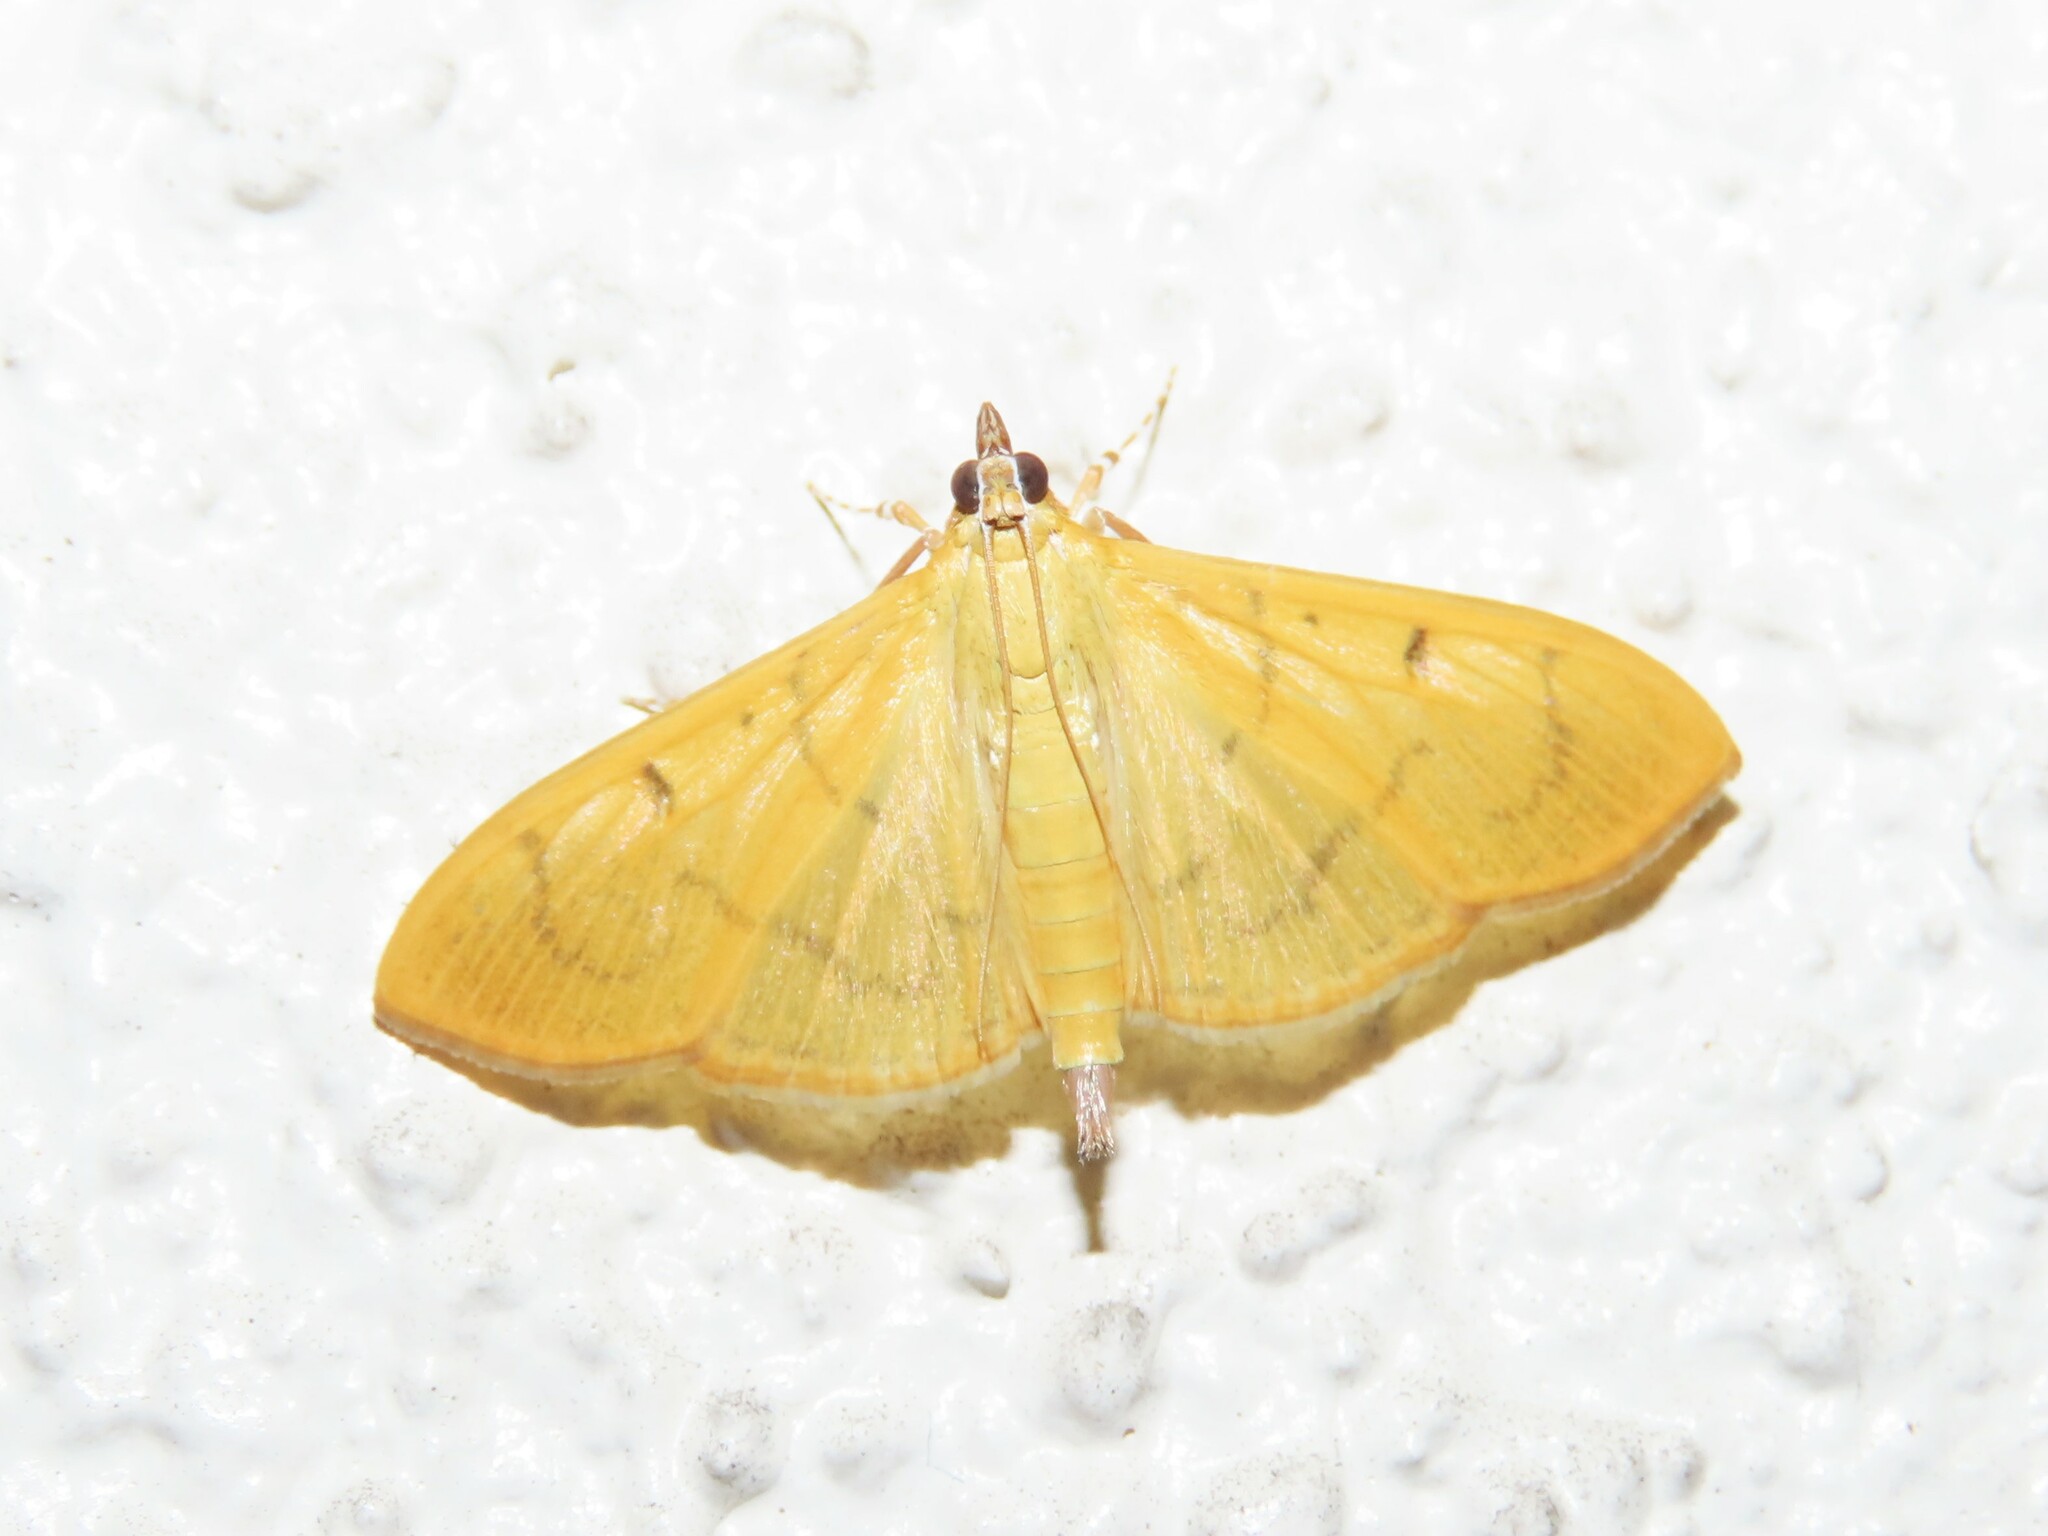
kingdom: Animalia
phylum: Arthropoda
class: Insecta
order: Lepidoptera
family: Crambidae
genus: Condylorrhiza
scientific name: Condylorrhiza vestigialis
